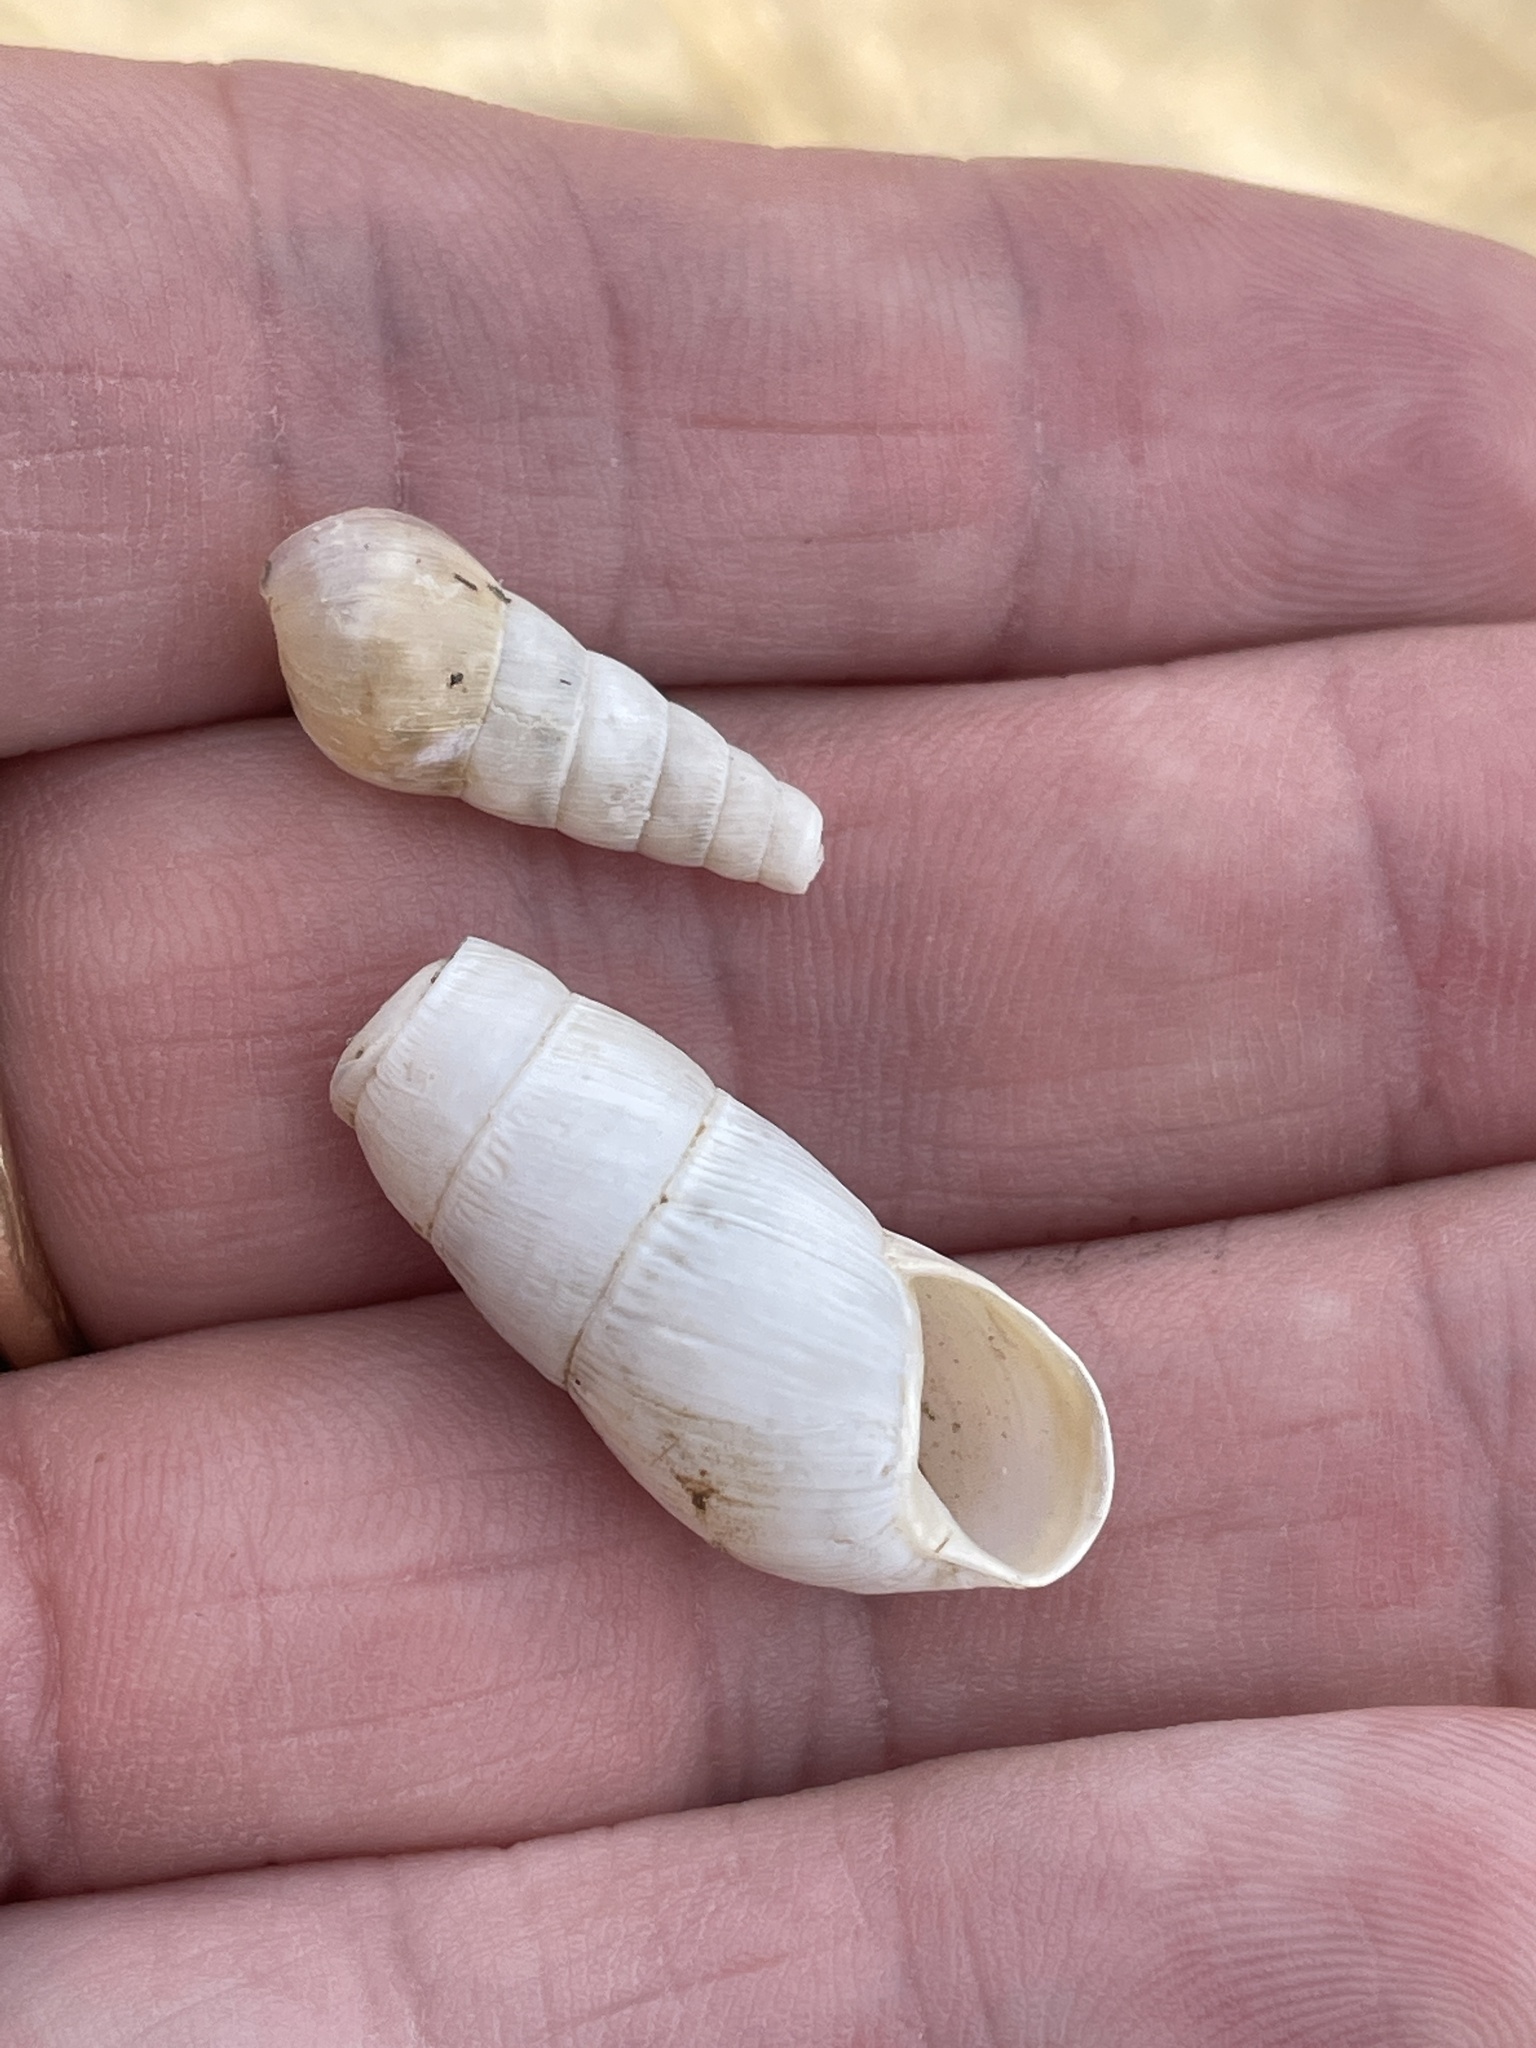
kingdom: Animalia
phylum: Mollusca
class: Gastropoda
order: Stylommatophora
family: Achatinidae
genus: Rumina
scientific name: Rumina decollata
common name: Decollate snail
